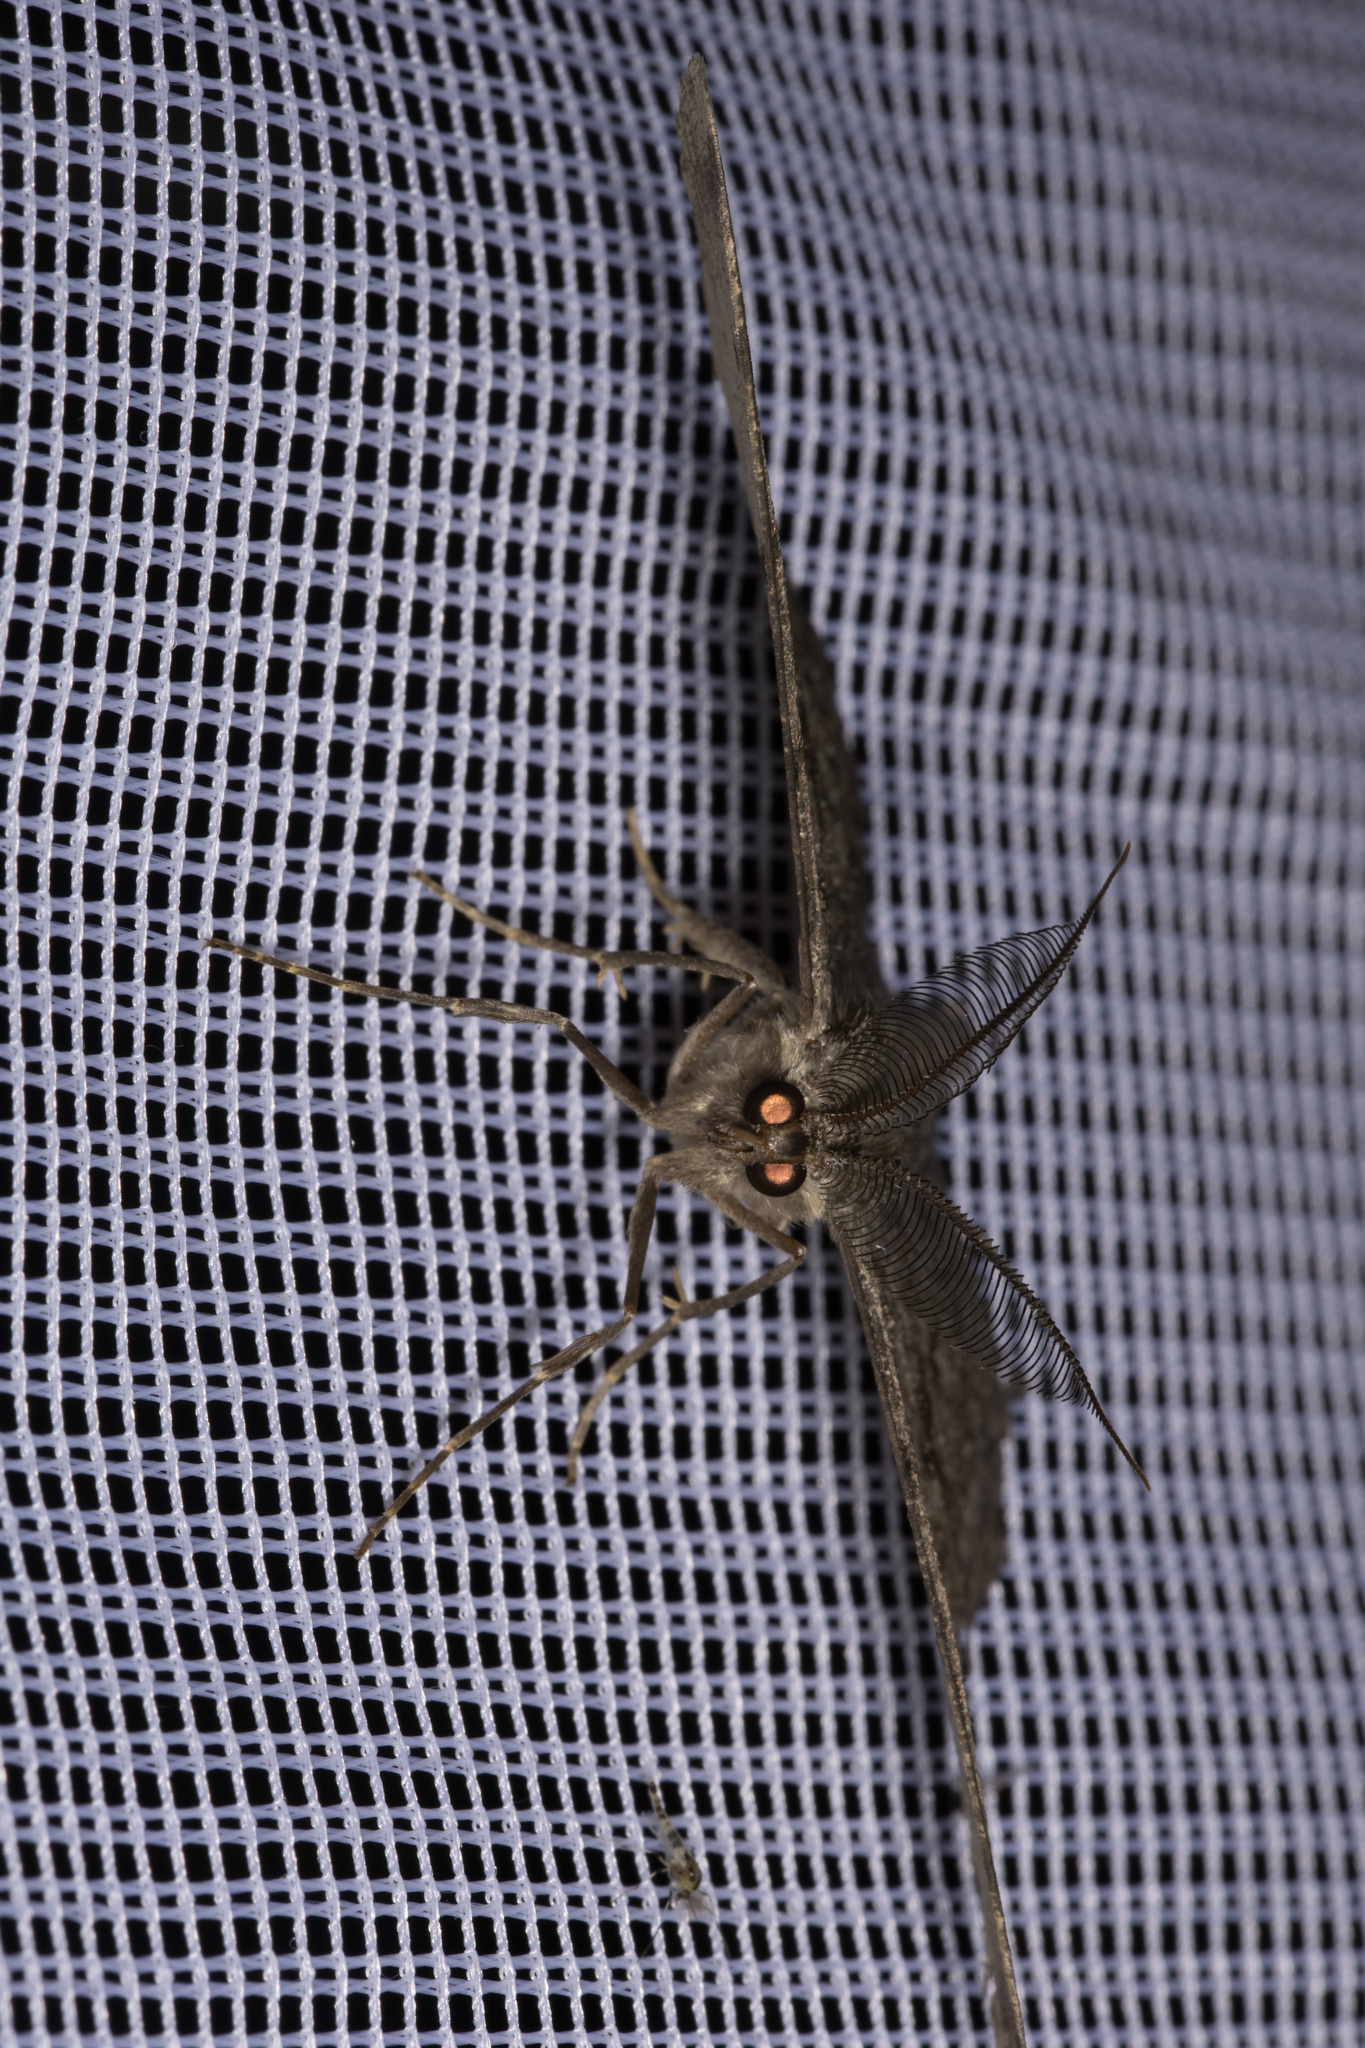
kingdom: Animalia
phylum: Arthropoda
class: Insecta
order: Lepidoptera
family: Geometridae
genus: Hypomecis
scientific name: Hypomecis roboraria
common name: Great oak beauty
